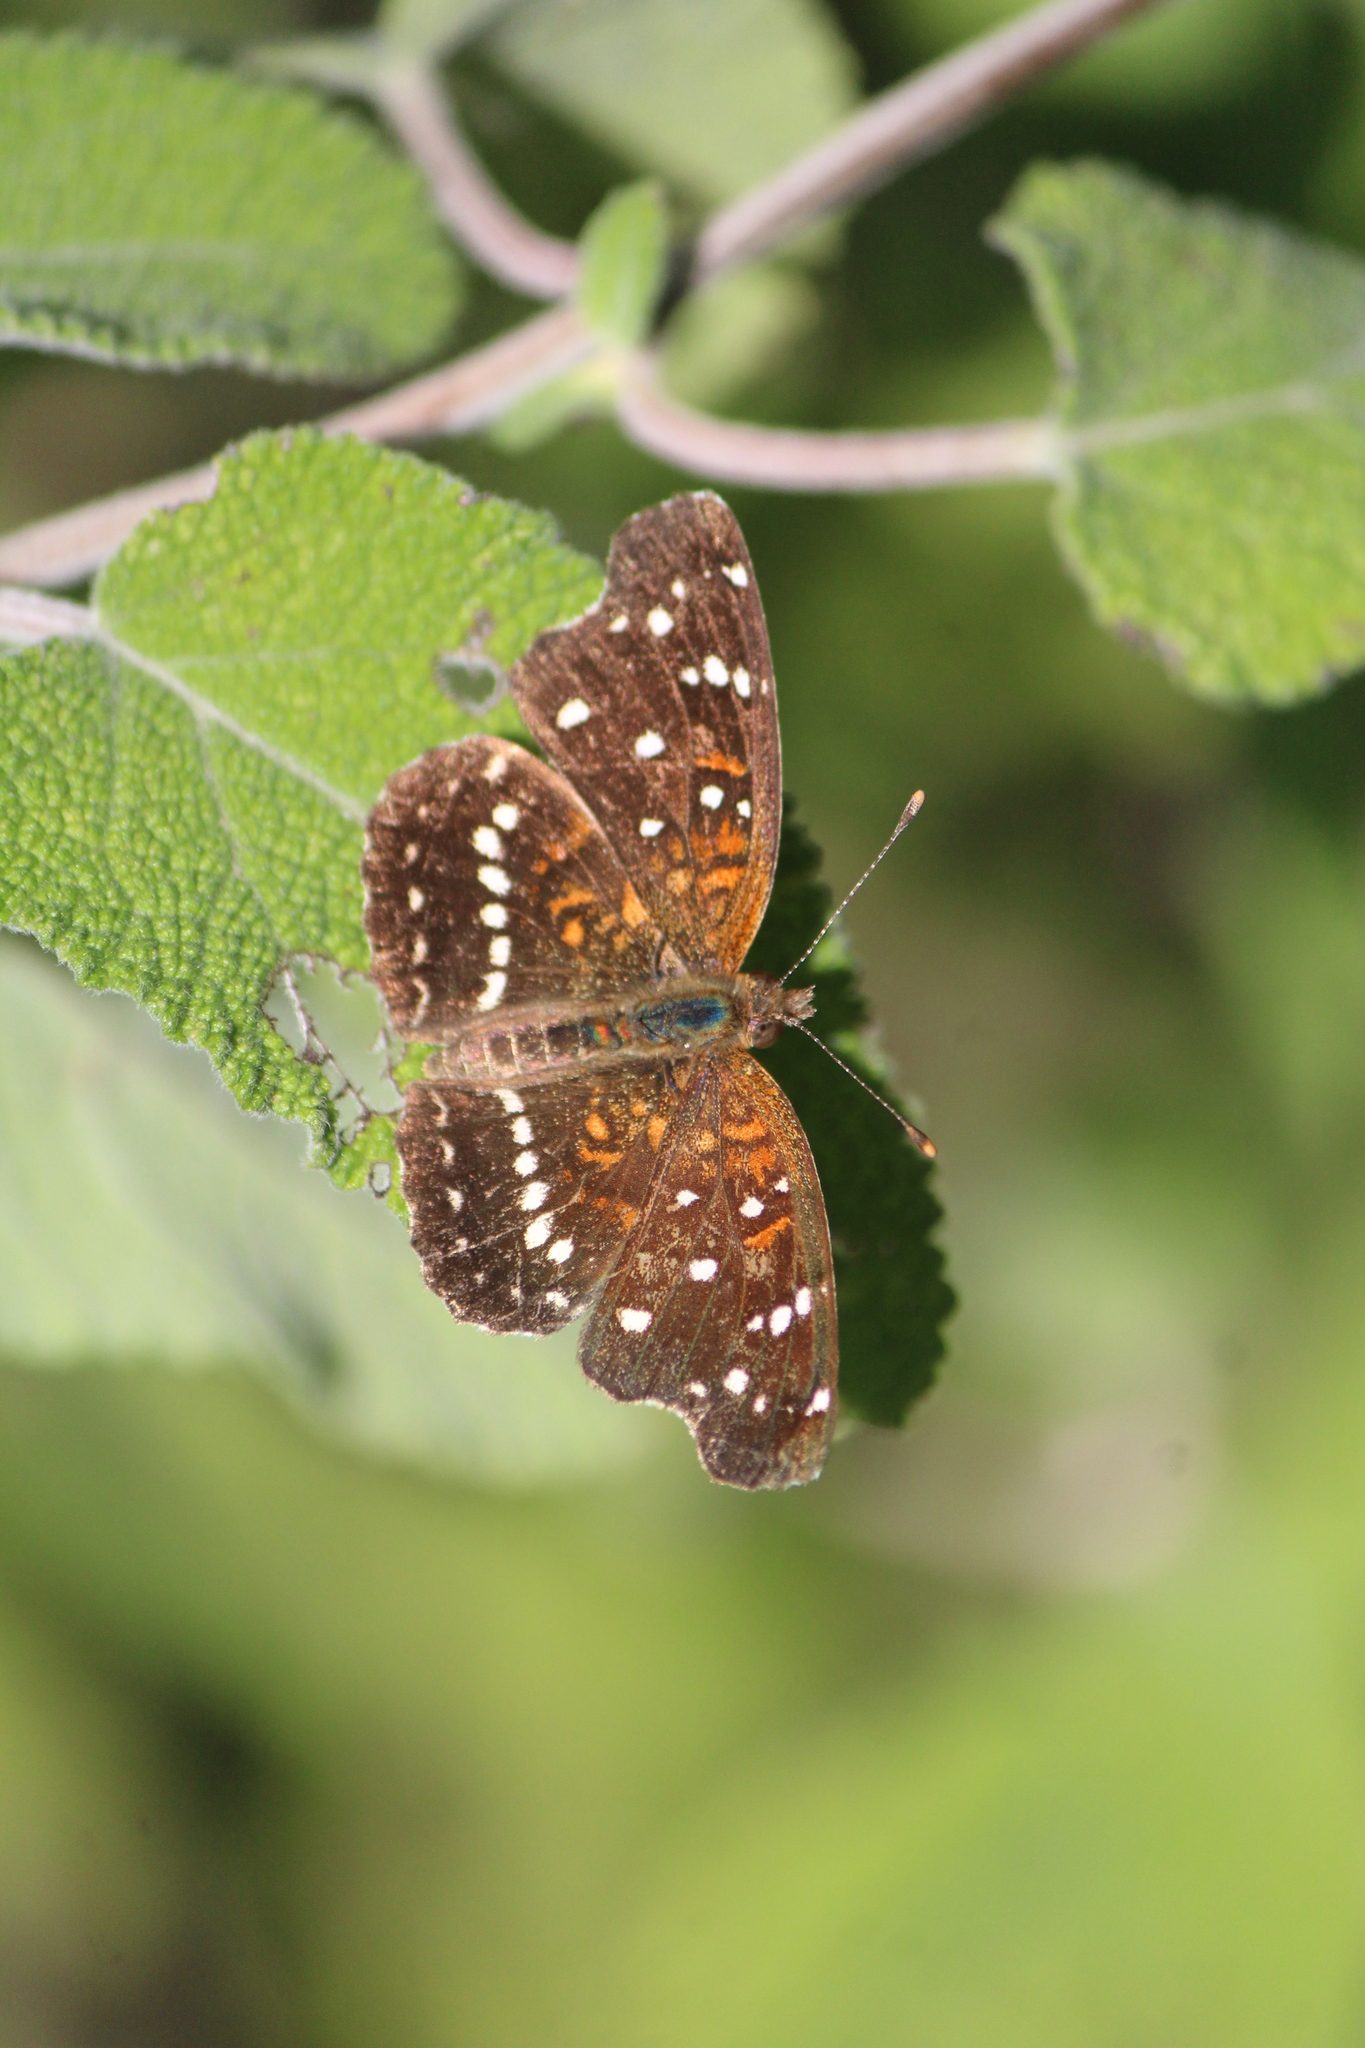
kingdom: Animalia
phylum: Arthropoda
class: Insecta
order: Lepidoptera
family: Nymphalidae
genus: Anthanassa
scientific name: Anthanassa texana
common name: Texan crescent
